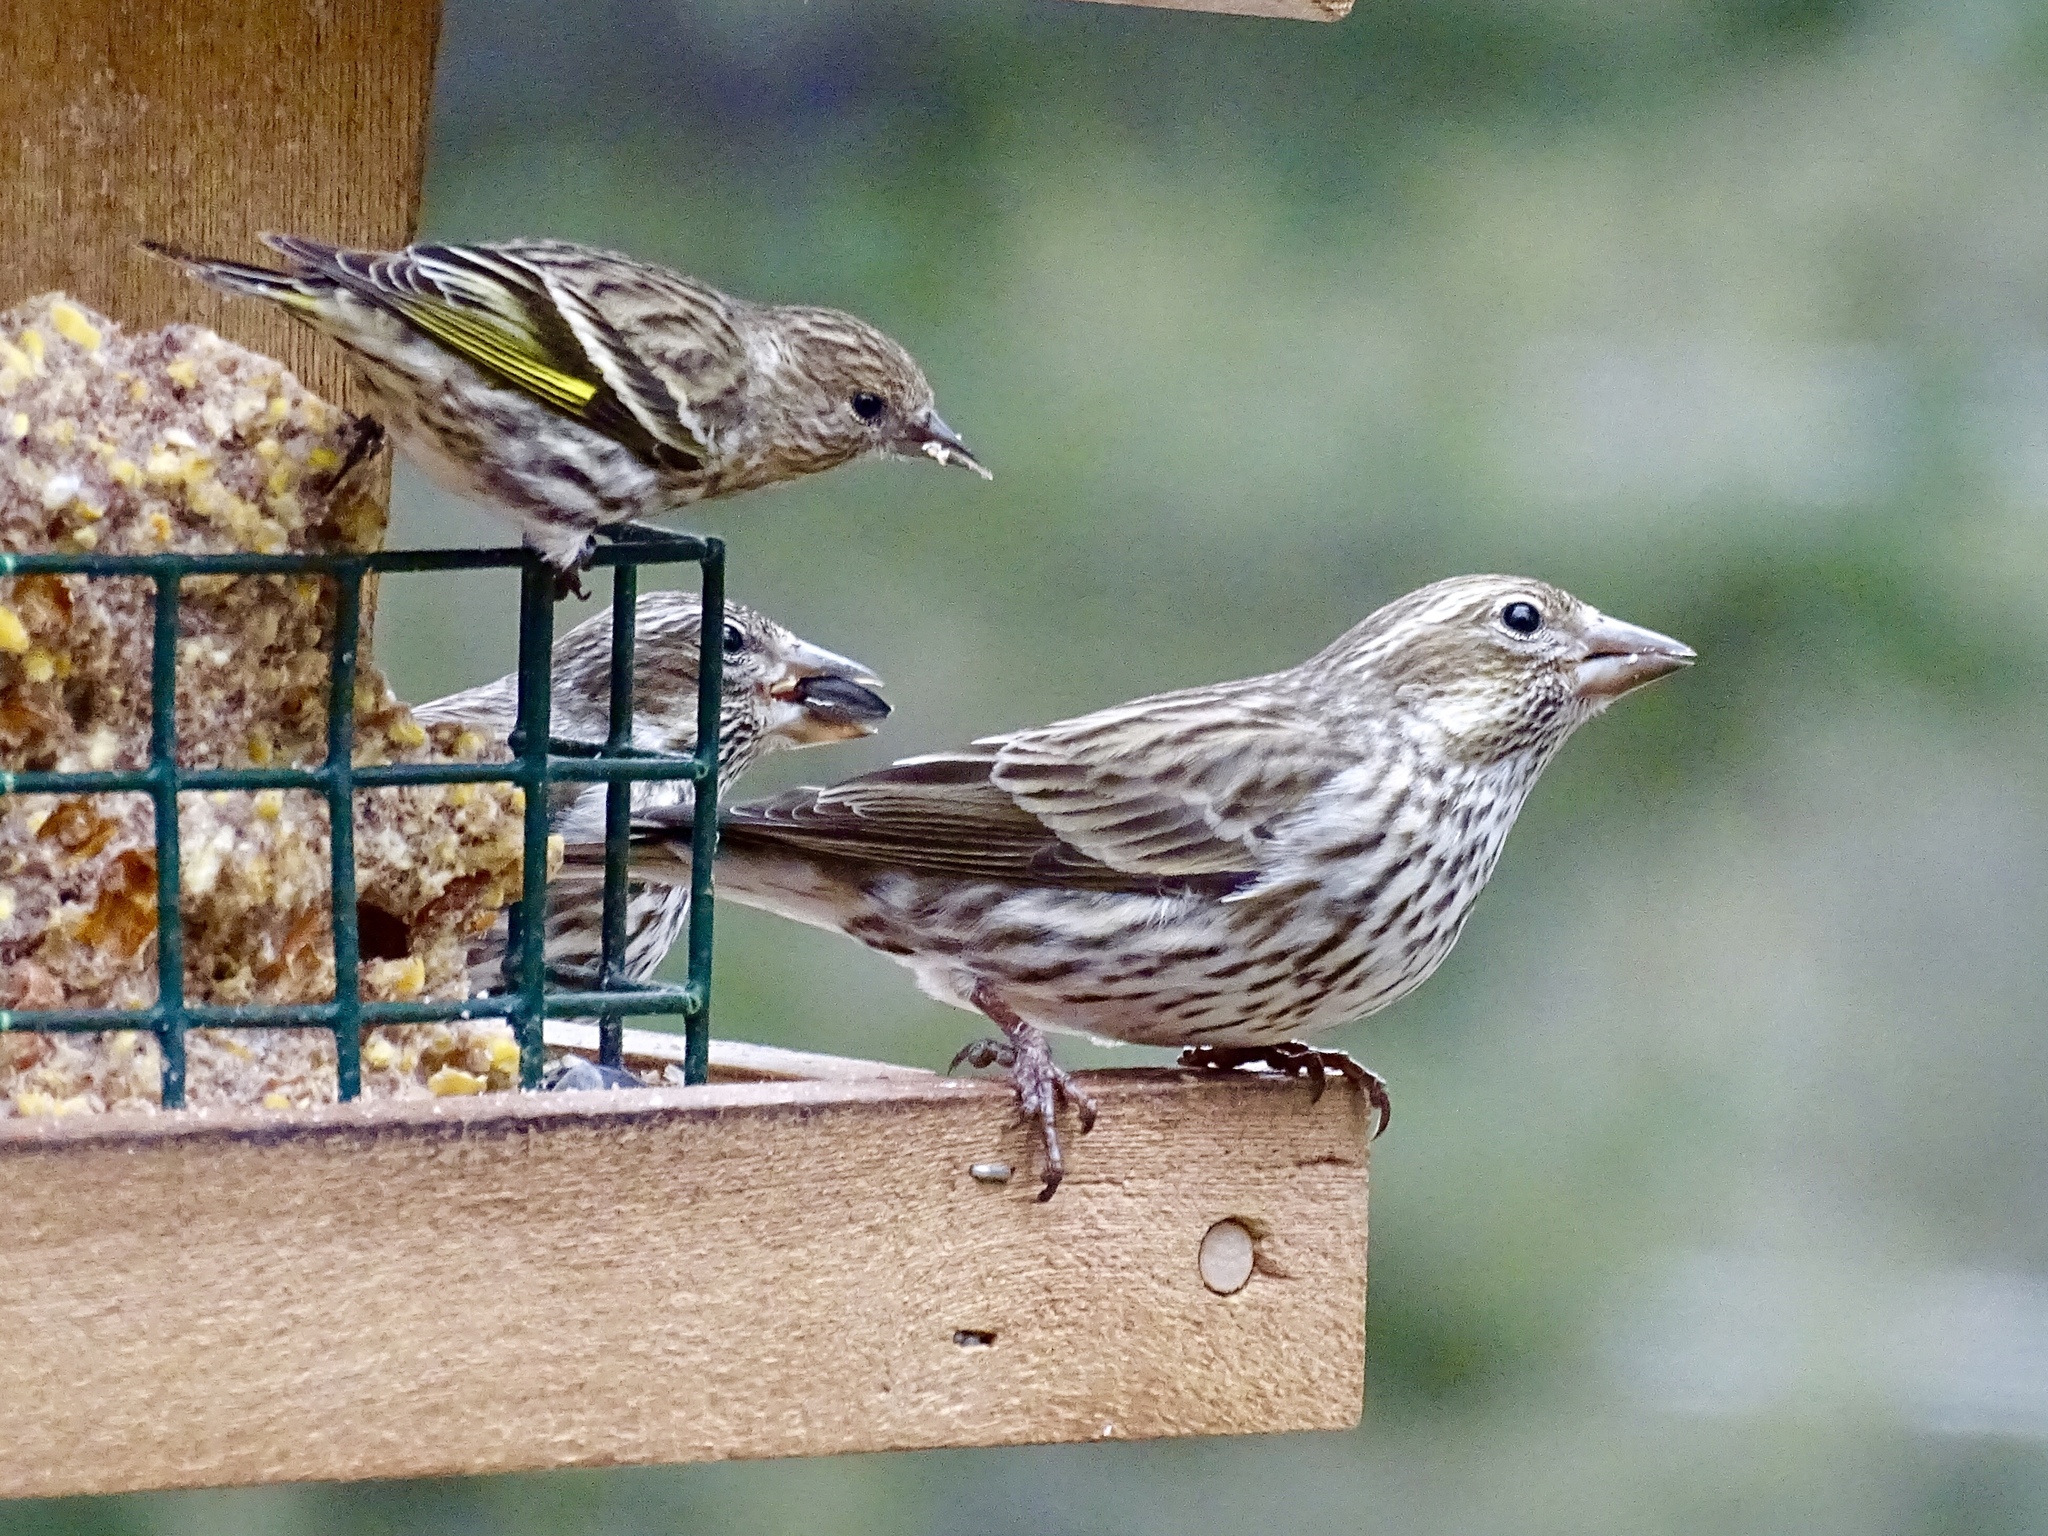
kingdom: Animalia
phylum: Chordata
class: Aves
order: Passeriformes
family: Fringillidae
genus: Haemorhous
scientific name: Haemorhous cassinii
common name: Cassin's finch
